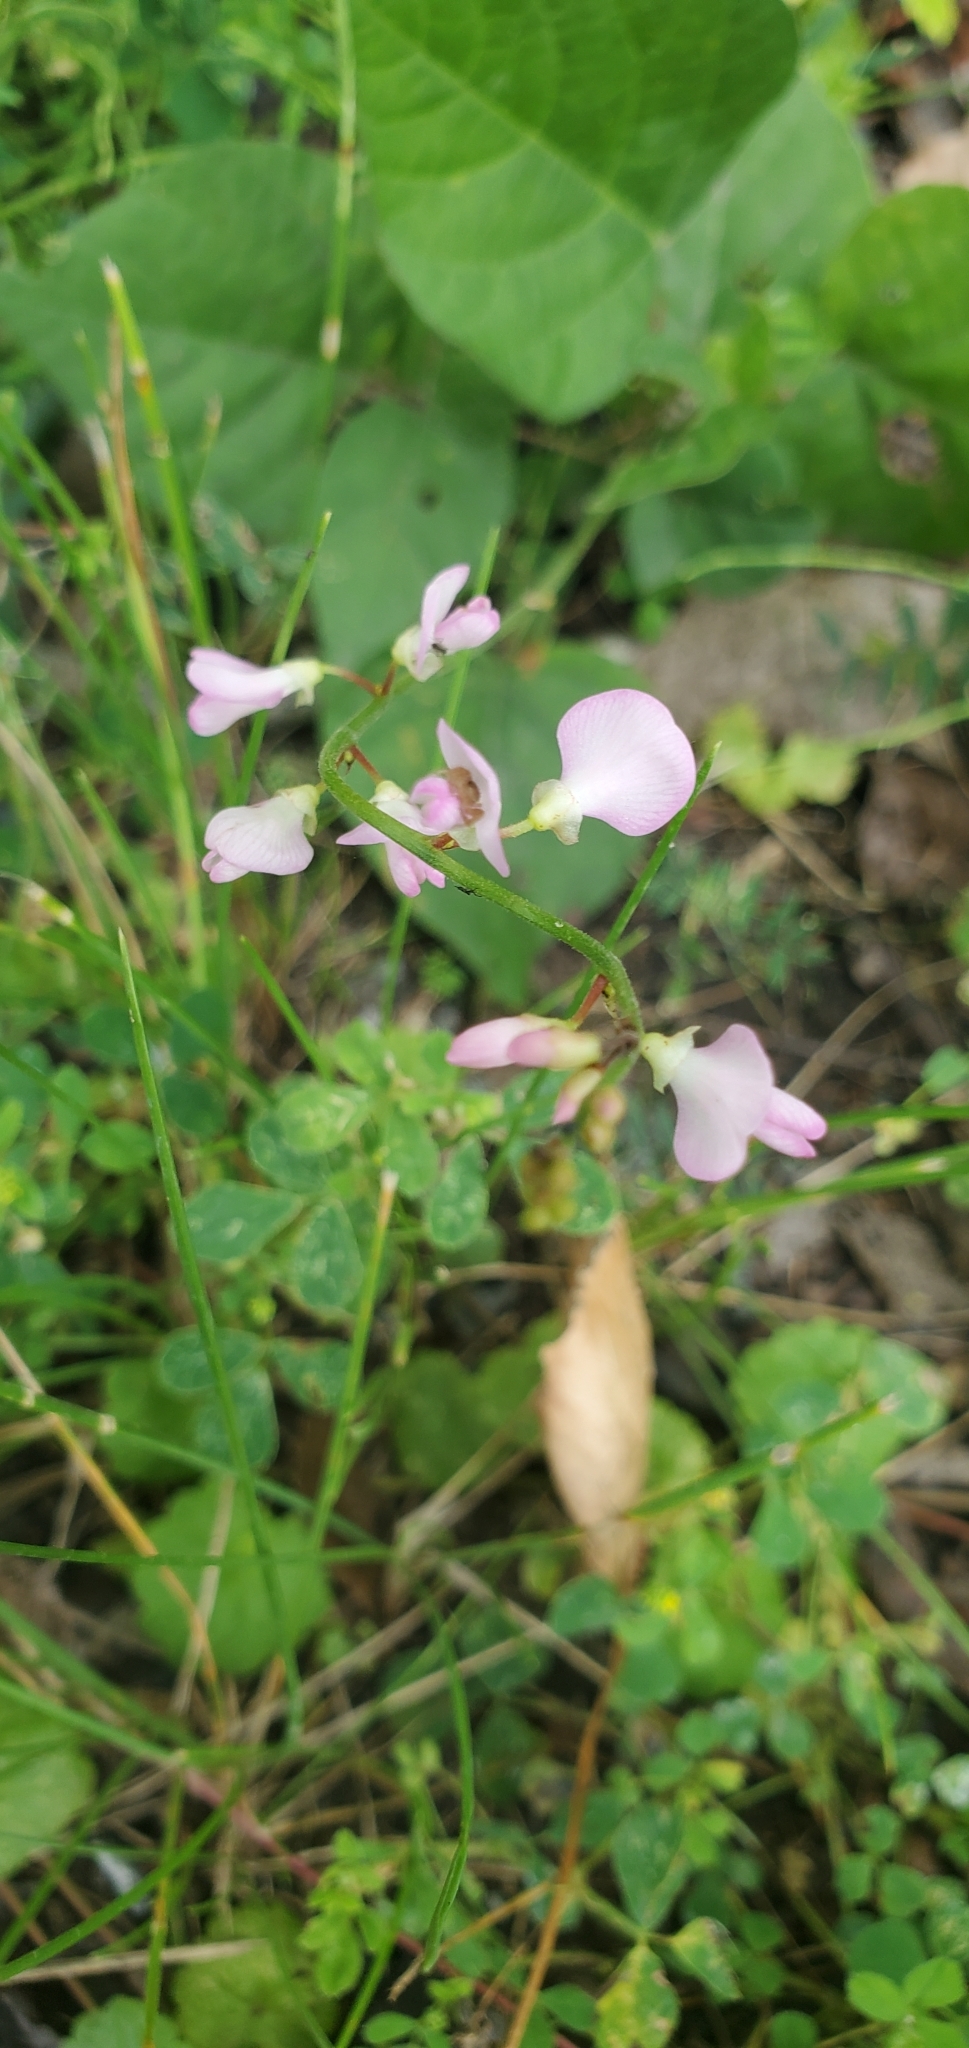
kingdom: Plantae
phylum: Tracheophyta
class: Magnoliopsida
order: Fabales
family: Fabaceae
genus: Hylodesmum
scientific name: Hylodesmum glutinosum
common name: Clustered-leaved tick-trefoil
